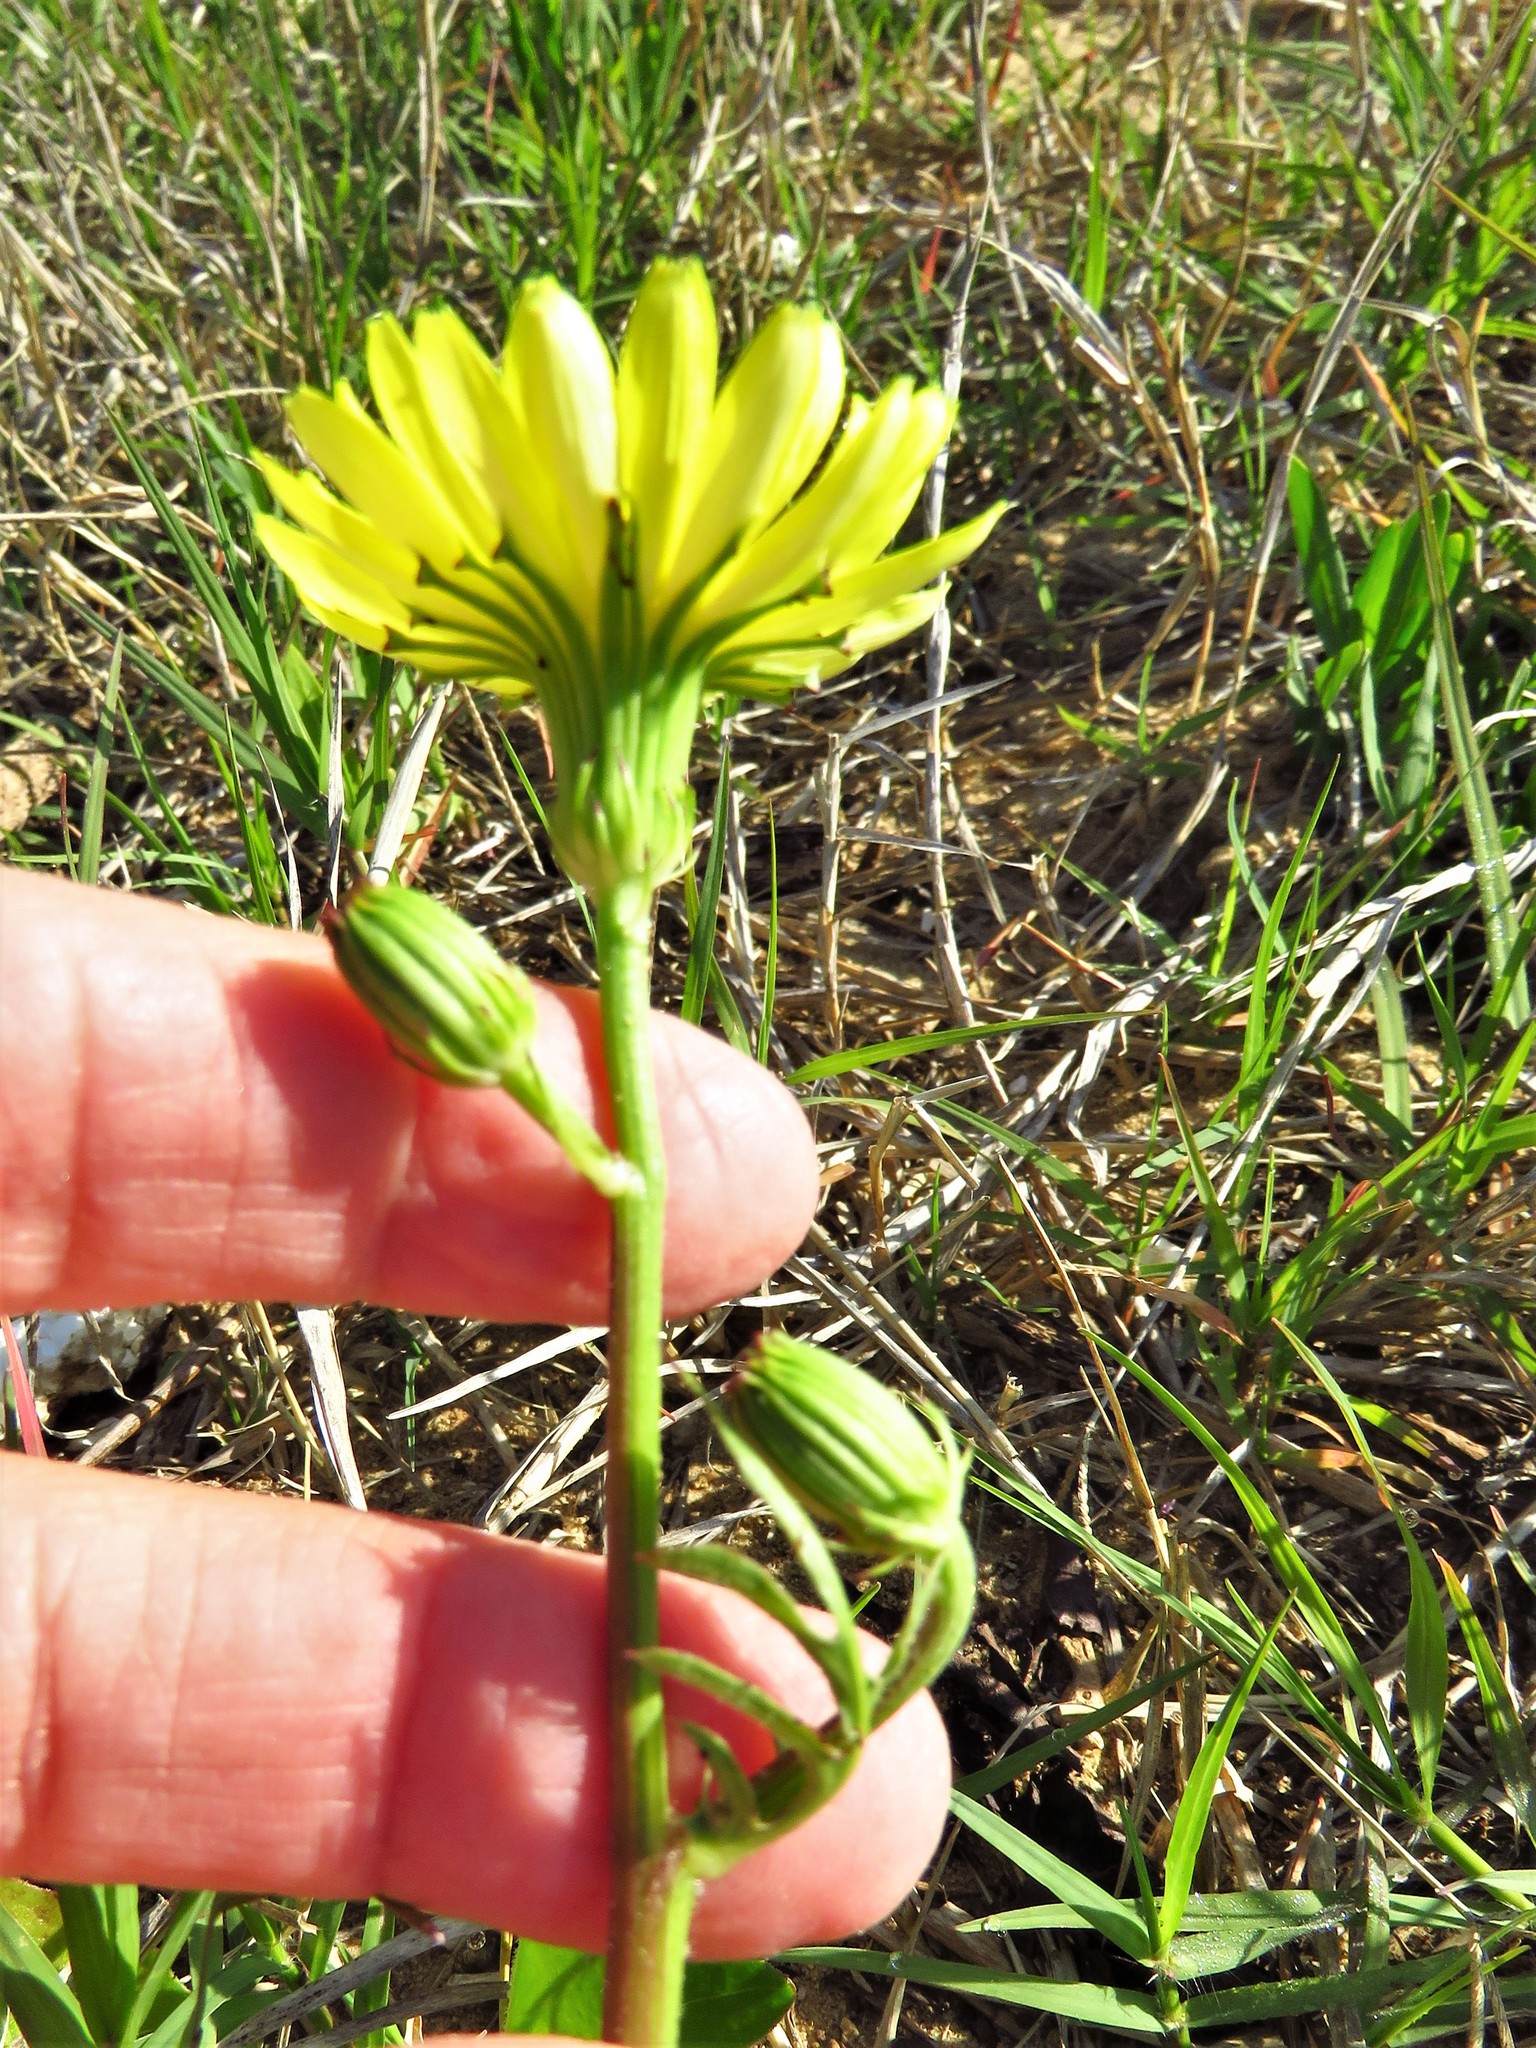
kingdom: Plantae
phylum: Tracheophyta
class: Magnoliopsida
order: Asterales
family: Asteraceae
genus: Pyrrhopappus
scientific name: Pyrrhopappus pauciflorus
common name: Texas false dandelion
